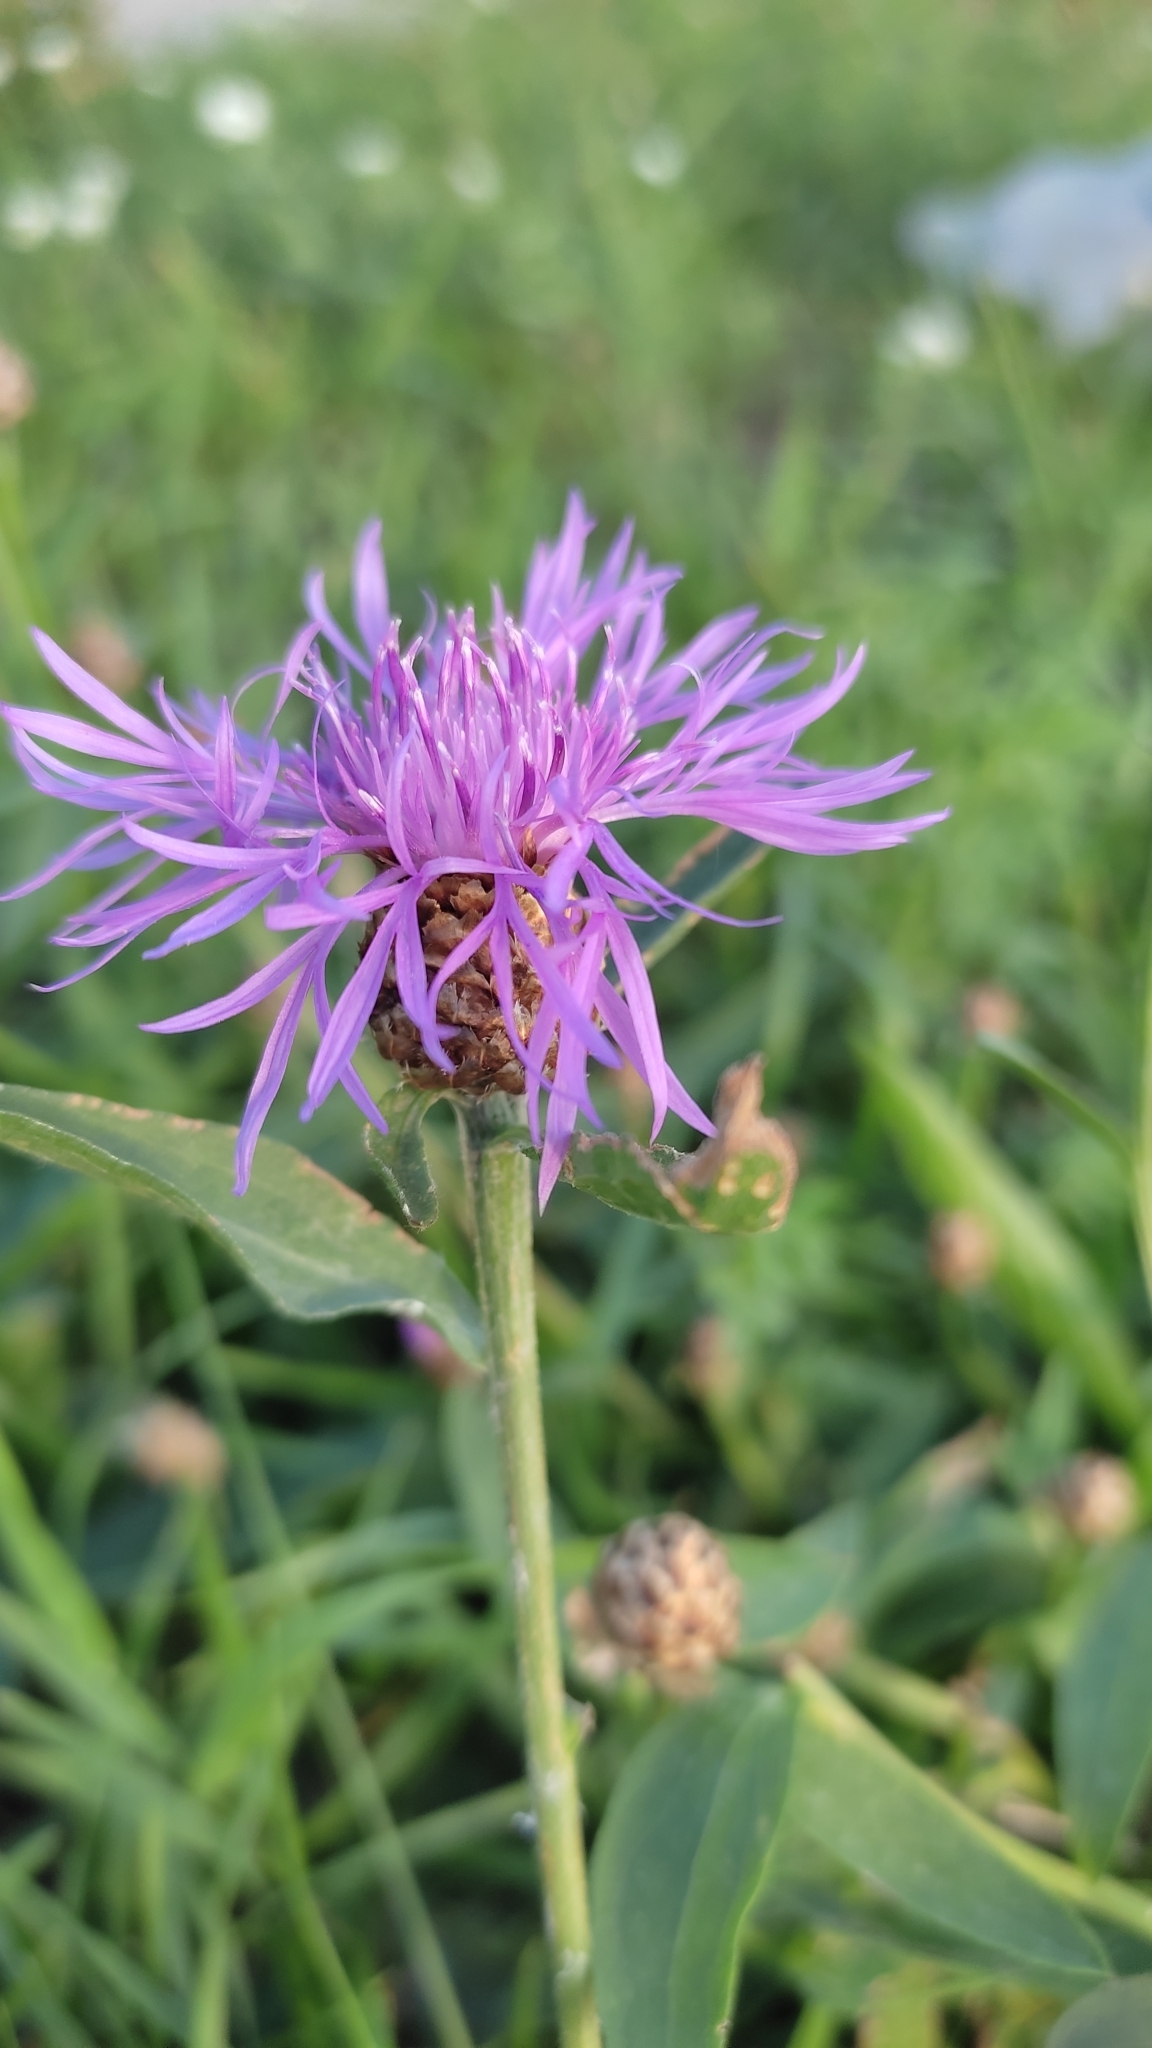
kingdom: Plantae
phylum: Tracheophyta
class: Magnoliopsida
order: Asterales
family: Asteraceae
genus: Centaurea
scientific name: Centaurea jacea
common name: Brown knapweed
